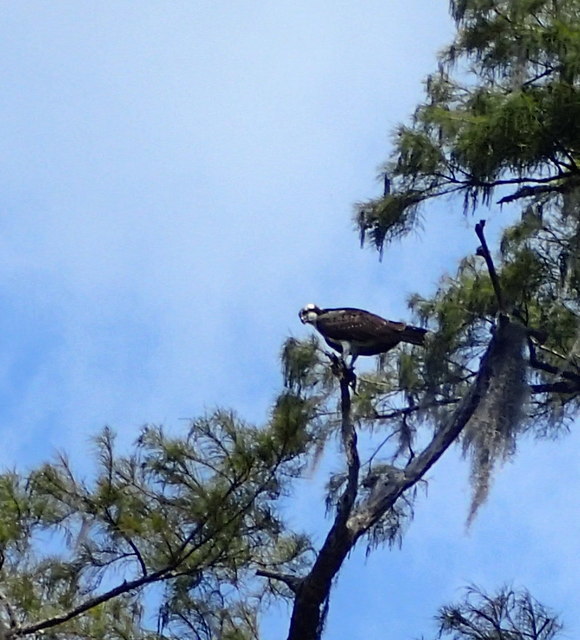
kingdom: Animalia
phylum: Chordata
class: Aves
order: Accipitriformes
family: Pandionidae
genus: Pandion
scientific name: Pandion haliaetus
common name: Osprey
